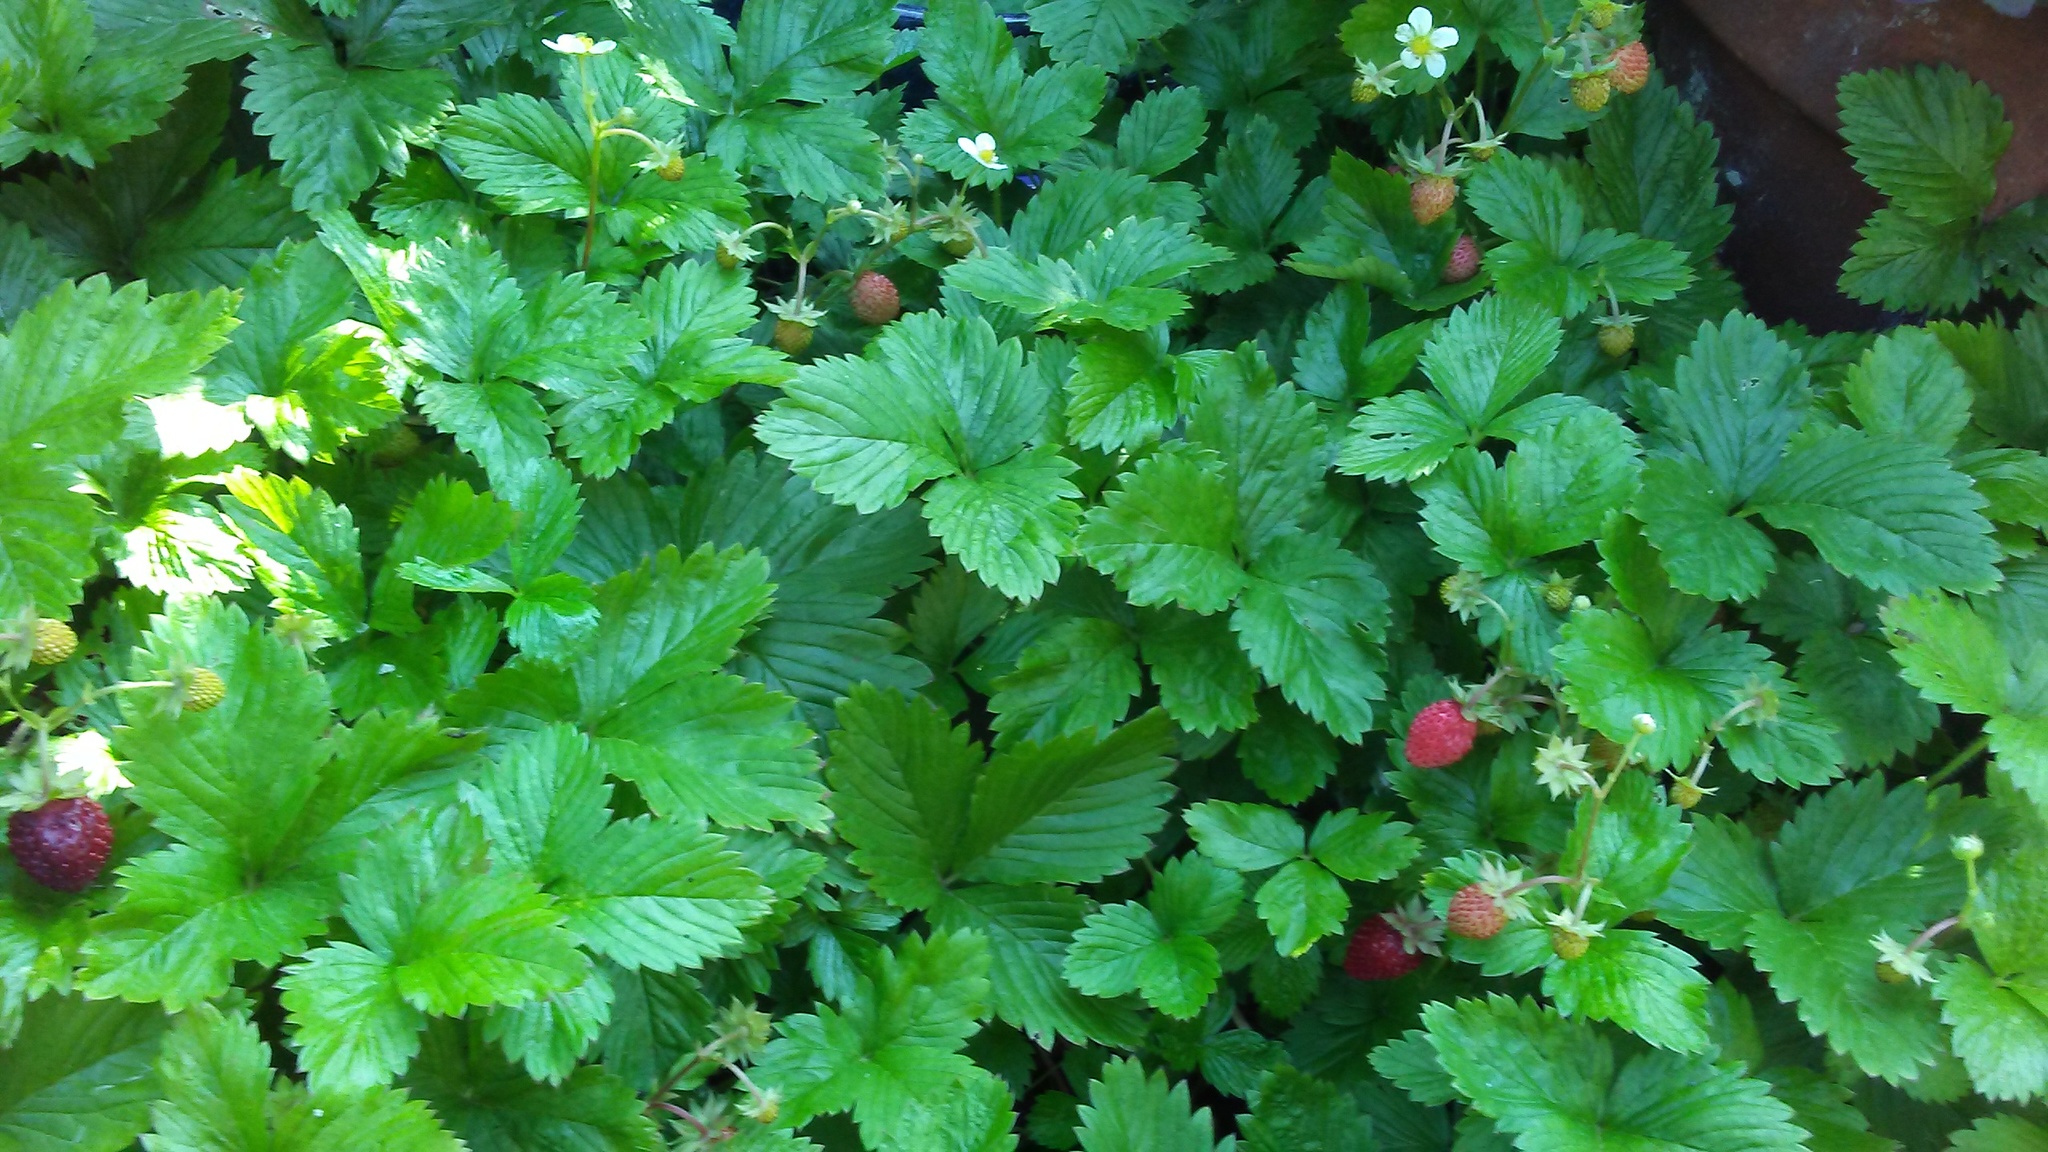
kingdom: Plantae
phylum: Tracheophyta
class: Magnoliopsida
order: Rosales
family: Rosaceae
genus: Fragaria
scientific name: Fragaria vesca
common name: Wild strawberry
